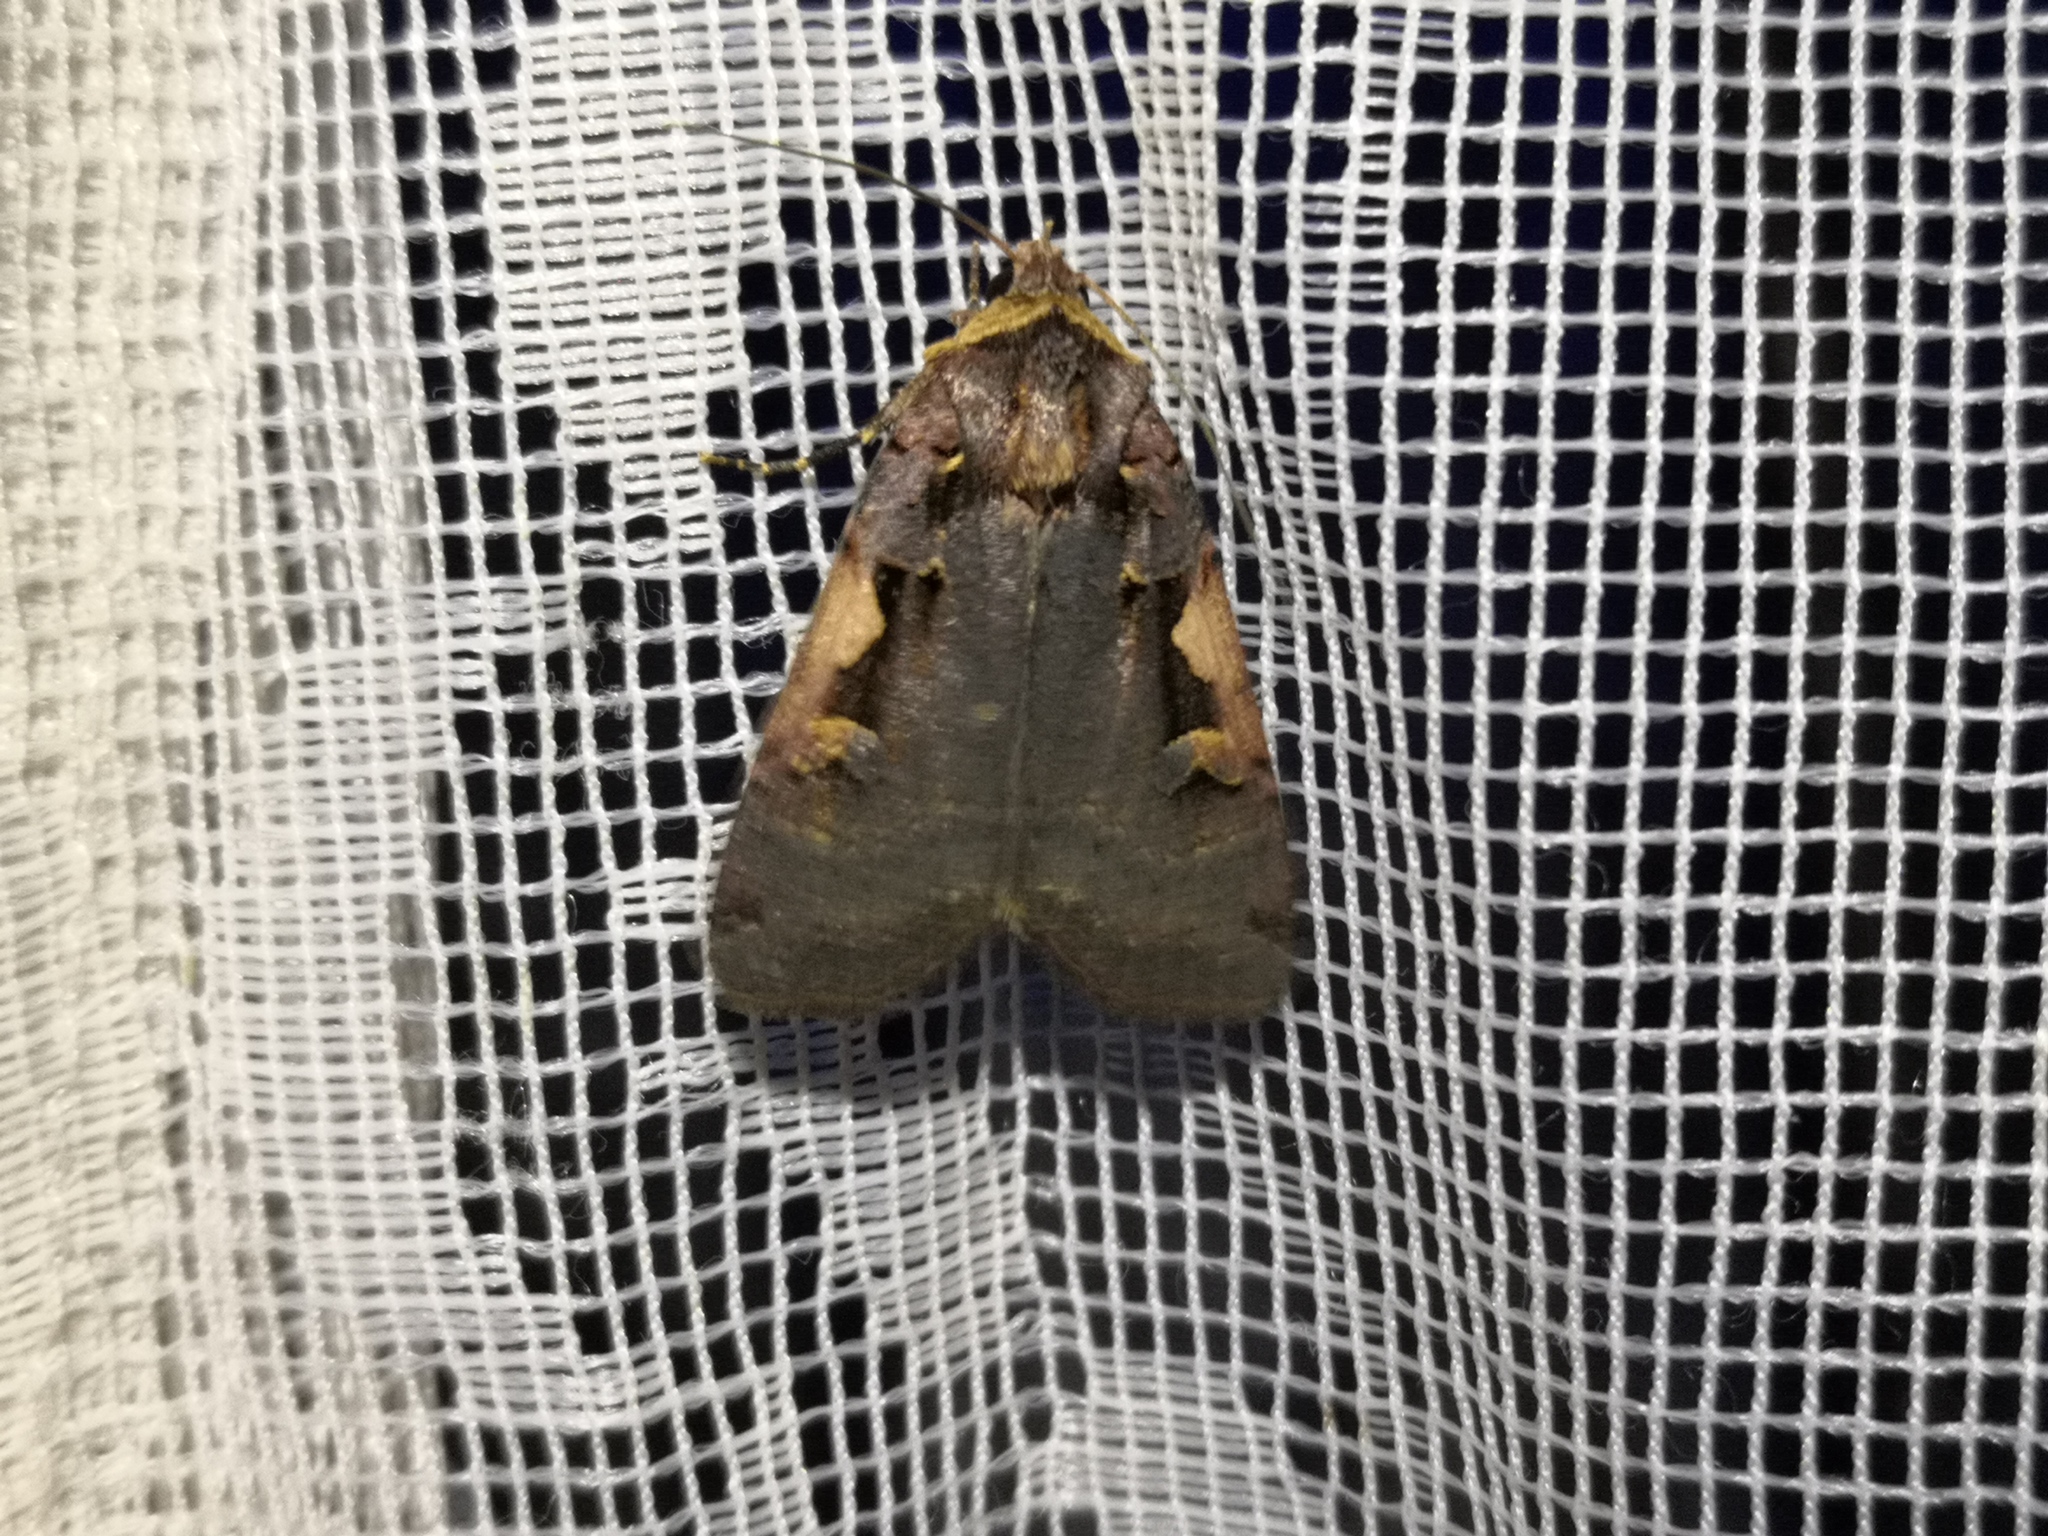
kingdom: Animalia
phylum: Arthropoda
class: Insecta
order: Lepidoptera
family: Noctuidae
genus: Xestia
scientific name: Xestia c-nigrum
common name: Setaceous hebrew character
